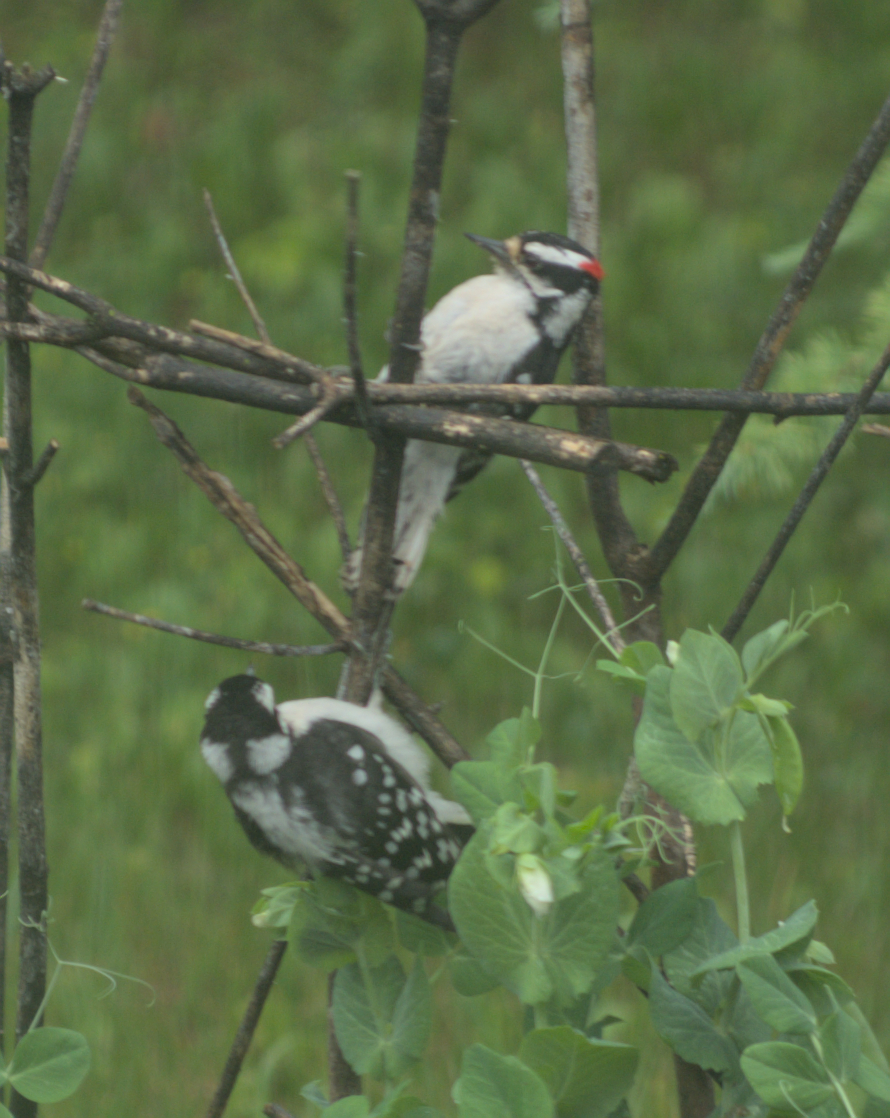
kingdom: Animalia
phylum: Chordata
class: Aves
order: Piciformes
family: Picidae
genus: Dryobates
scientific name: Dryobates pubescens
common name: Downy woodpecker
